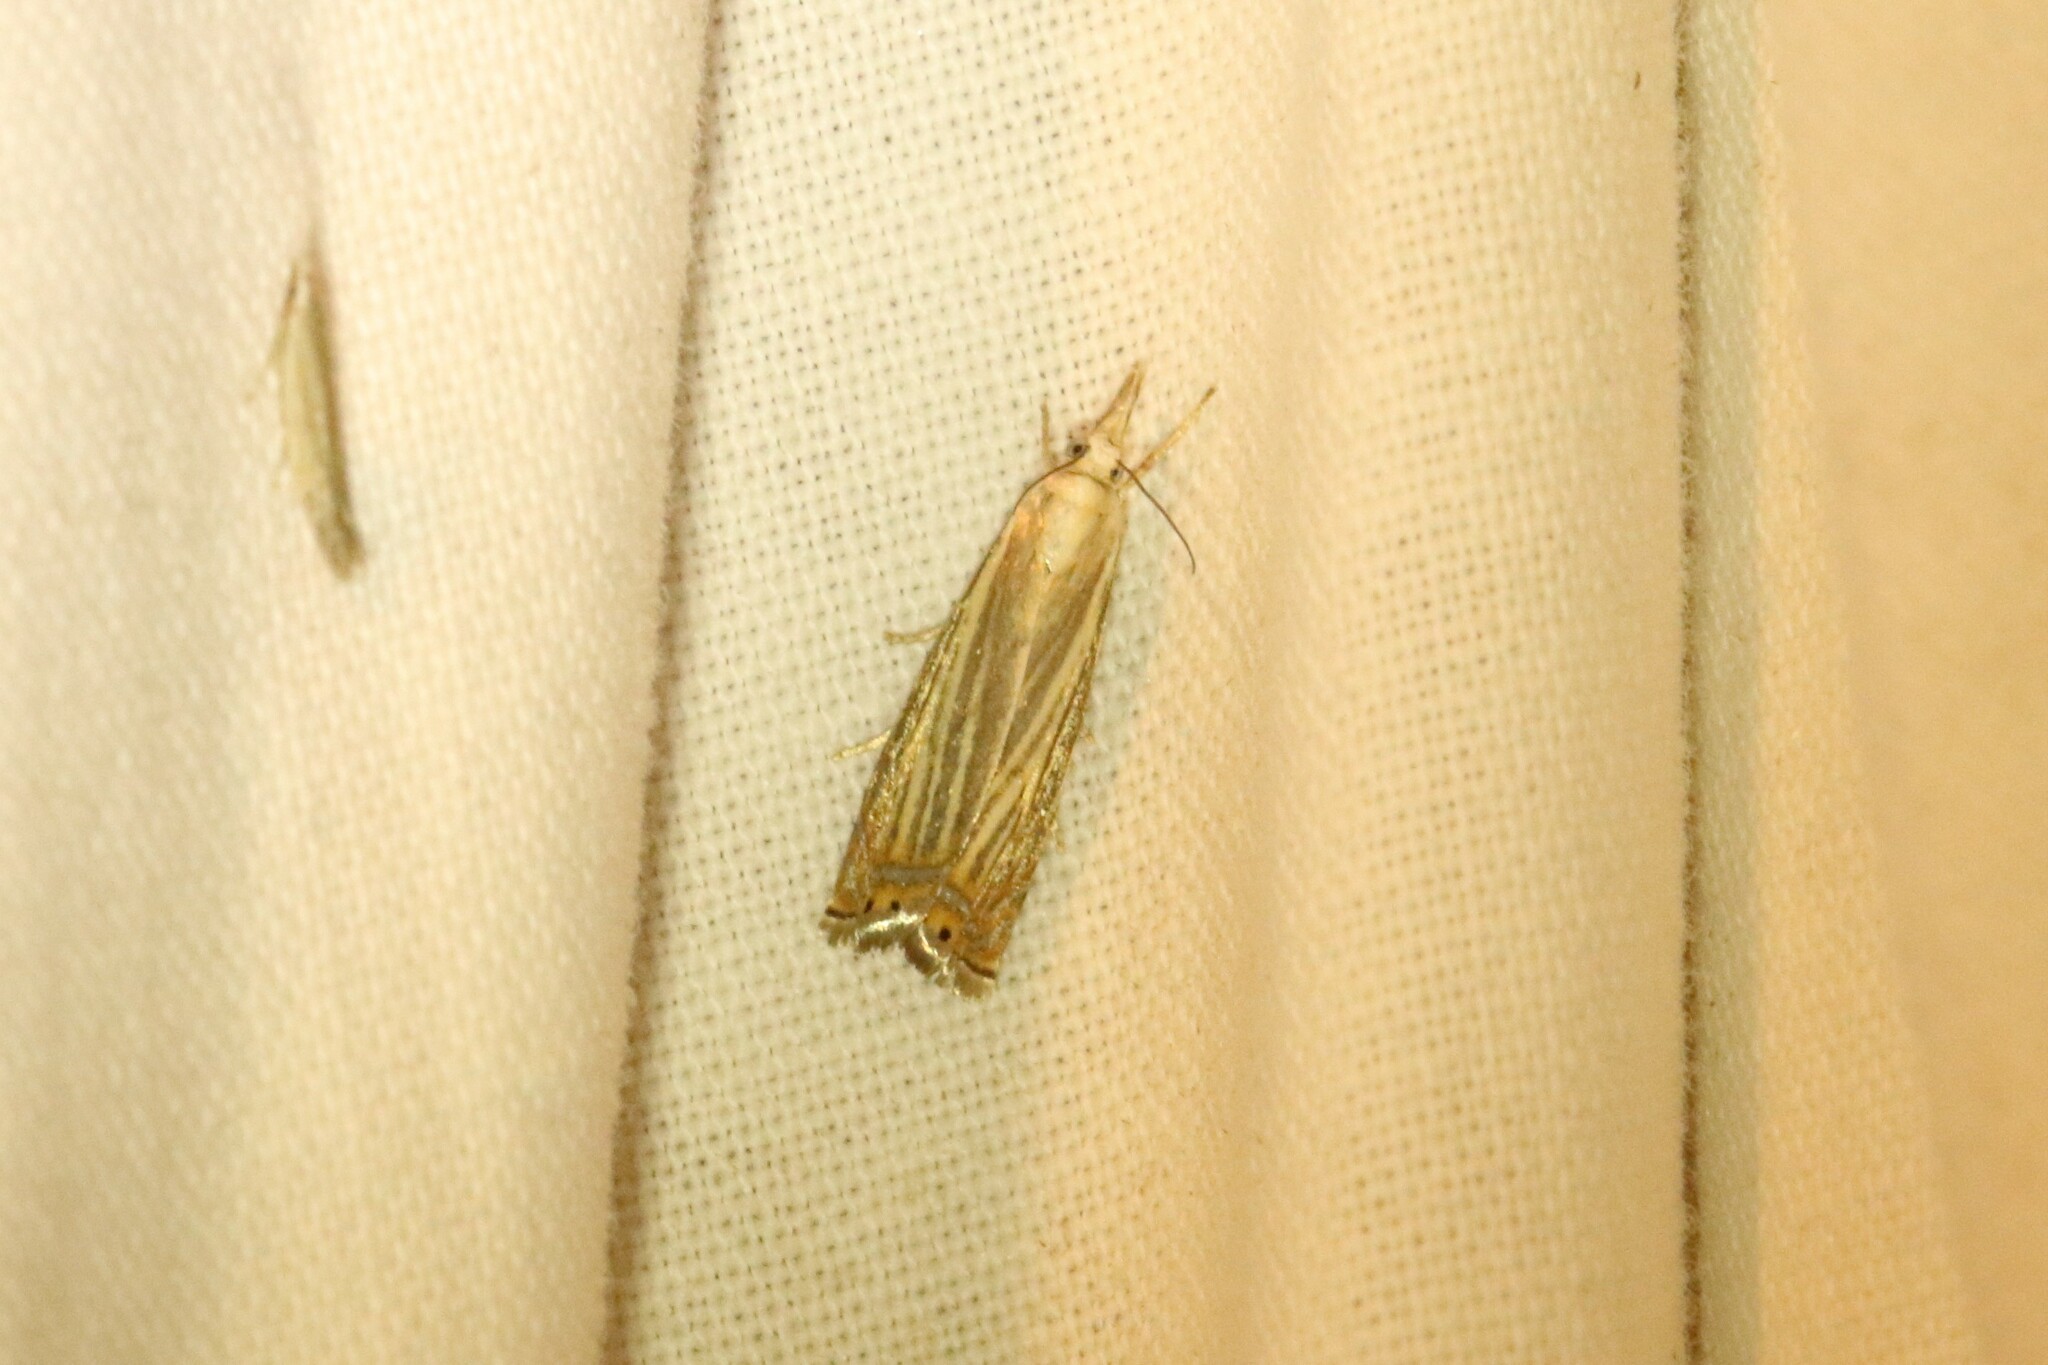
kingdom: Animalia
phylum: Arthropoda
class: Insecta
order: Lepidoptera
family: Crambidae
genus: Chrysoteuchia
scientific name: Chrysoteuchia topiarius
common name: Topiary grass-veneer
